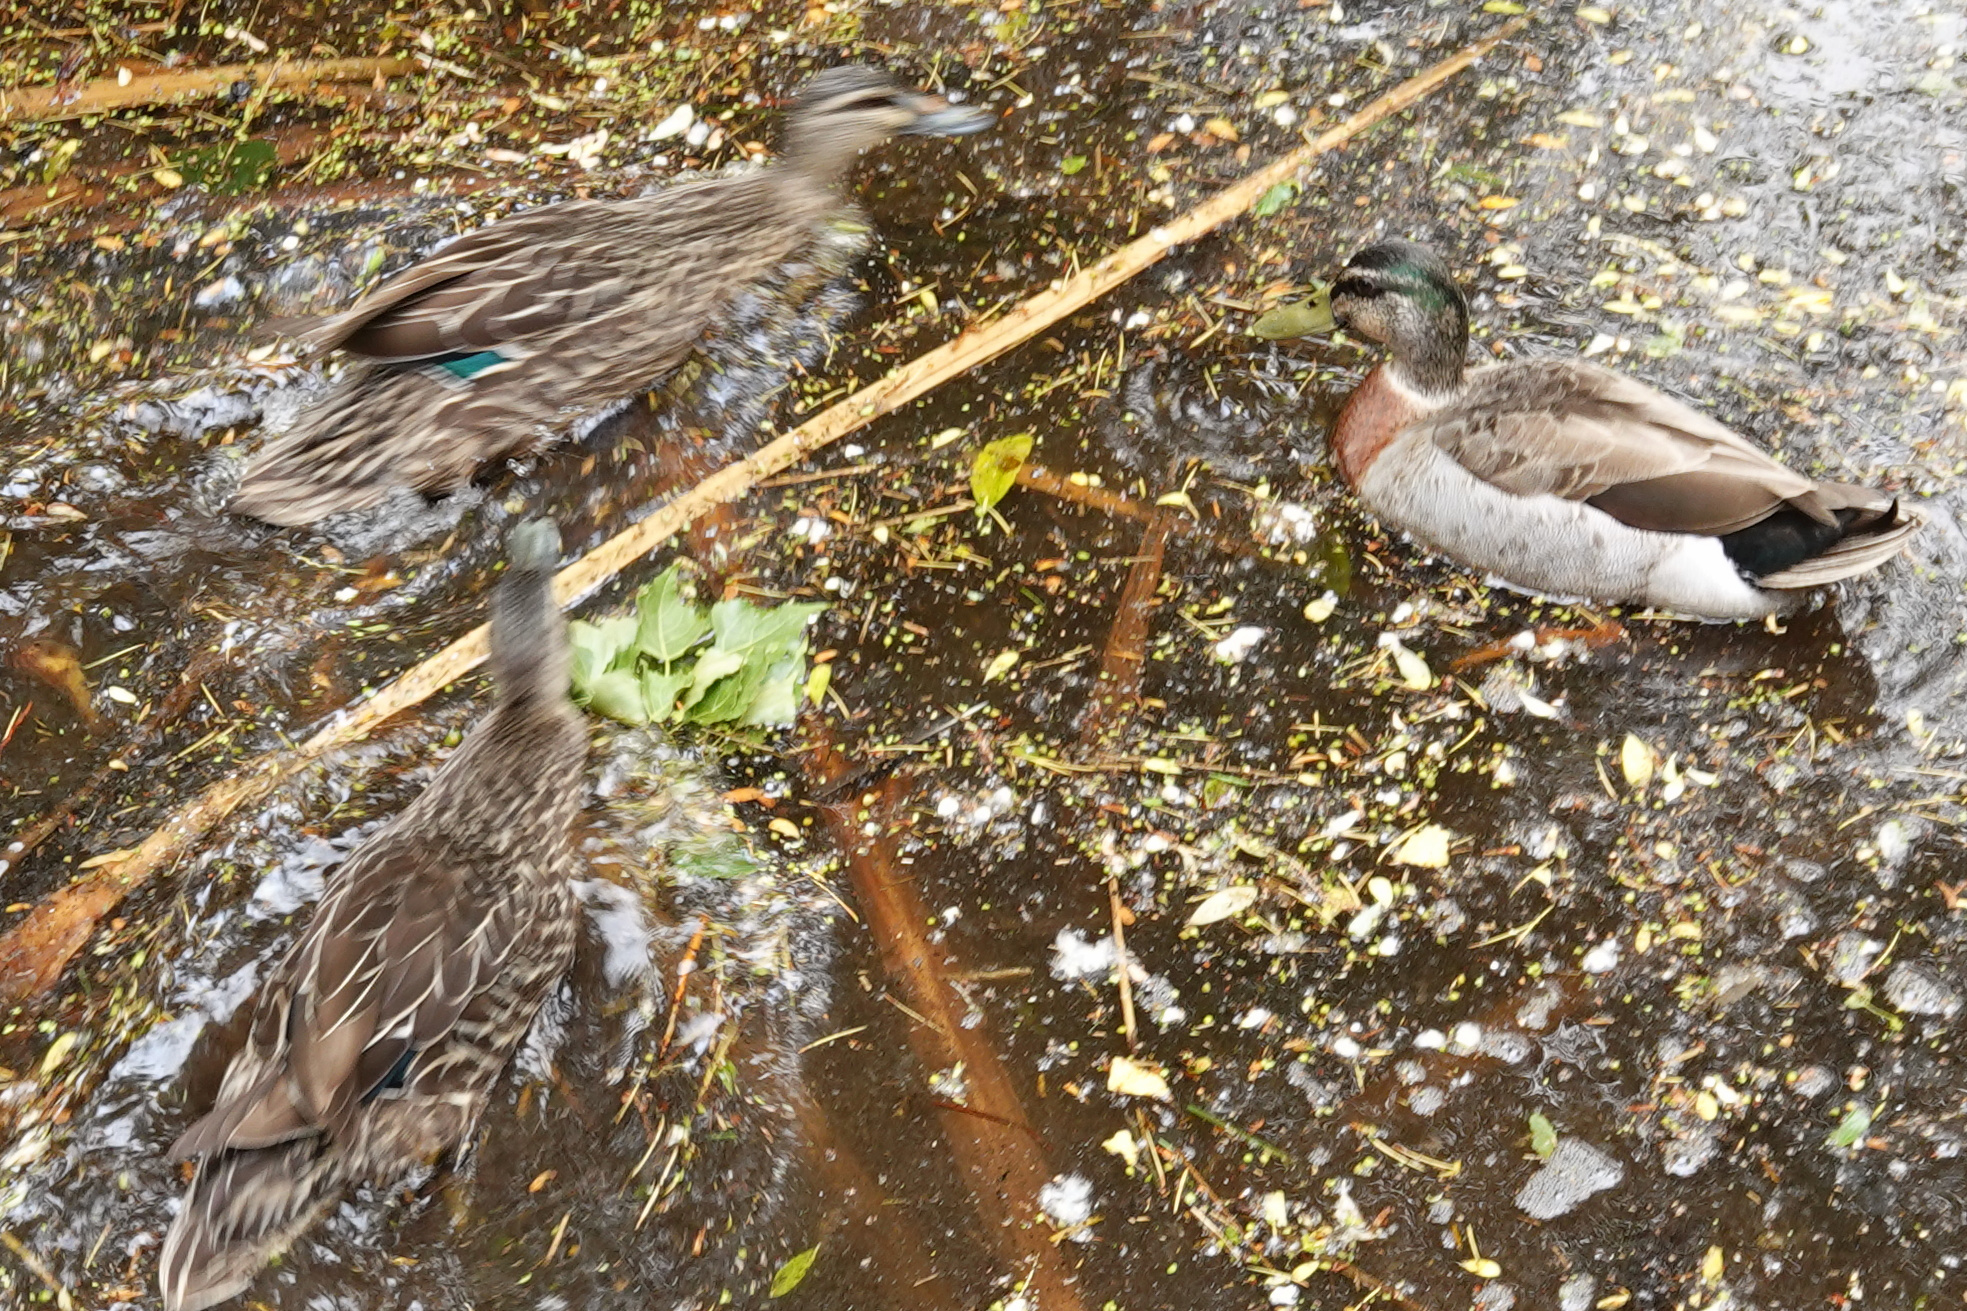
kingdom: Animalia
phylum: Chordata
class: Aves
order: Anseriformes
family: Anatidae
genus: Anas
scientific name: Anas
